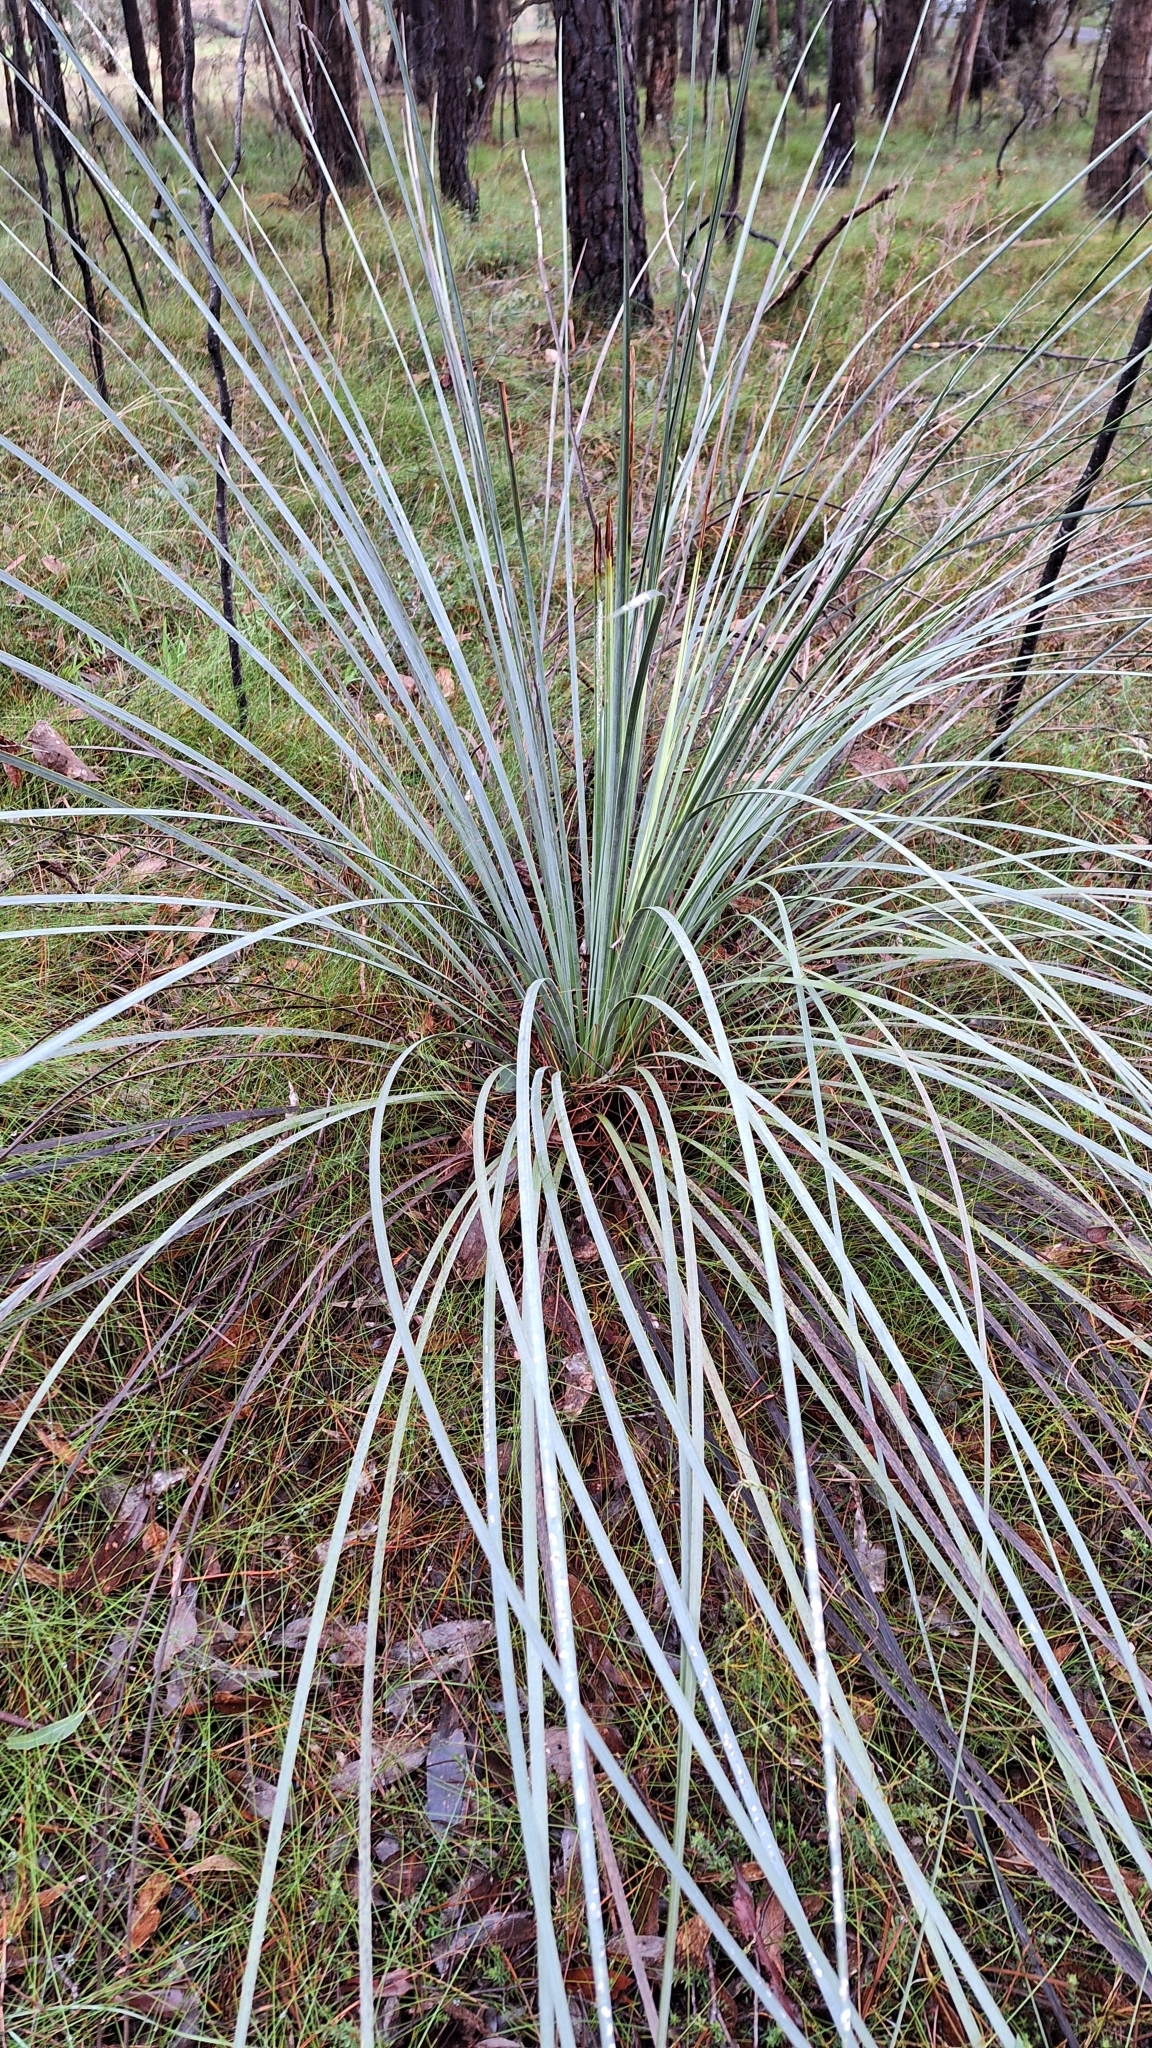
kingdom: Plantae
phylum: Tracheophyta
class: Liliopsida
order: Asparagales
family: Asphodelaceae
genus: Xanthorrhoea
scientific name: Xanthorrhoea semiplana
